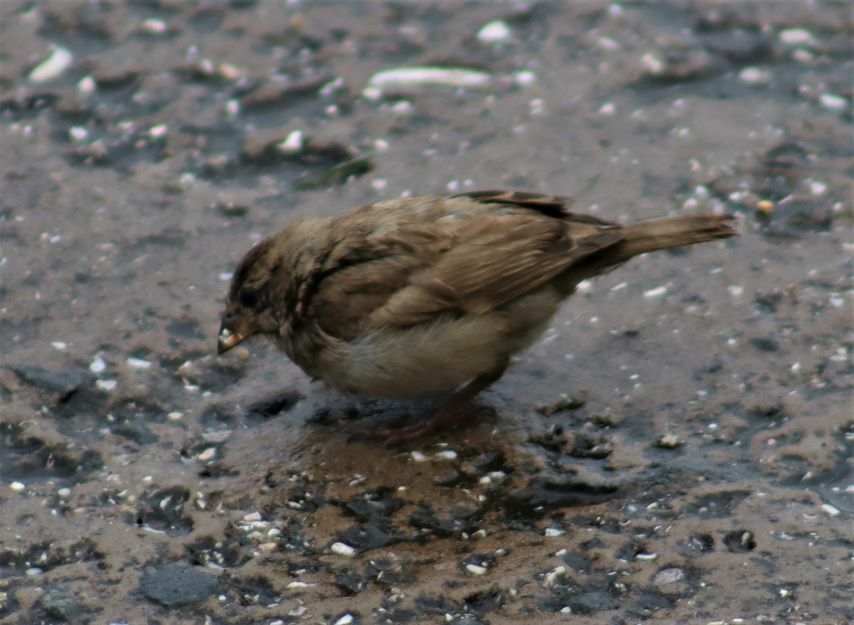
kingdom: Animalia
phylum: Chordata
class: Aves
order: Passeriformes
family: Passeridae
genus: Passer
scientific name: Passer domesticus
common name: House sparrow
